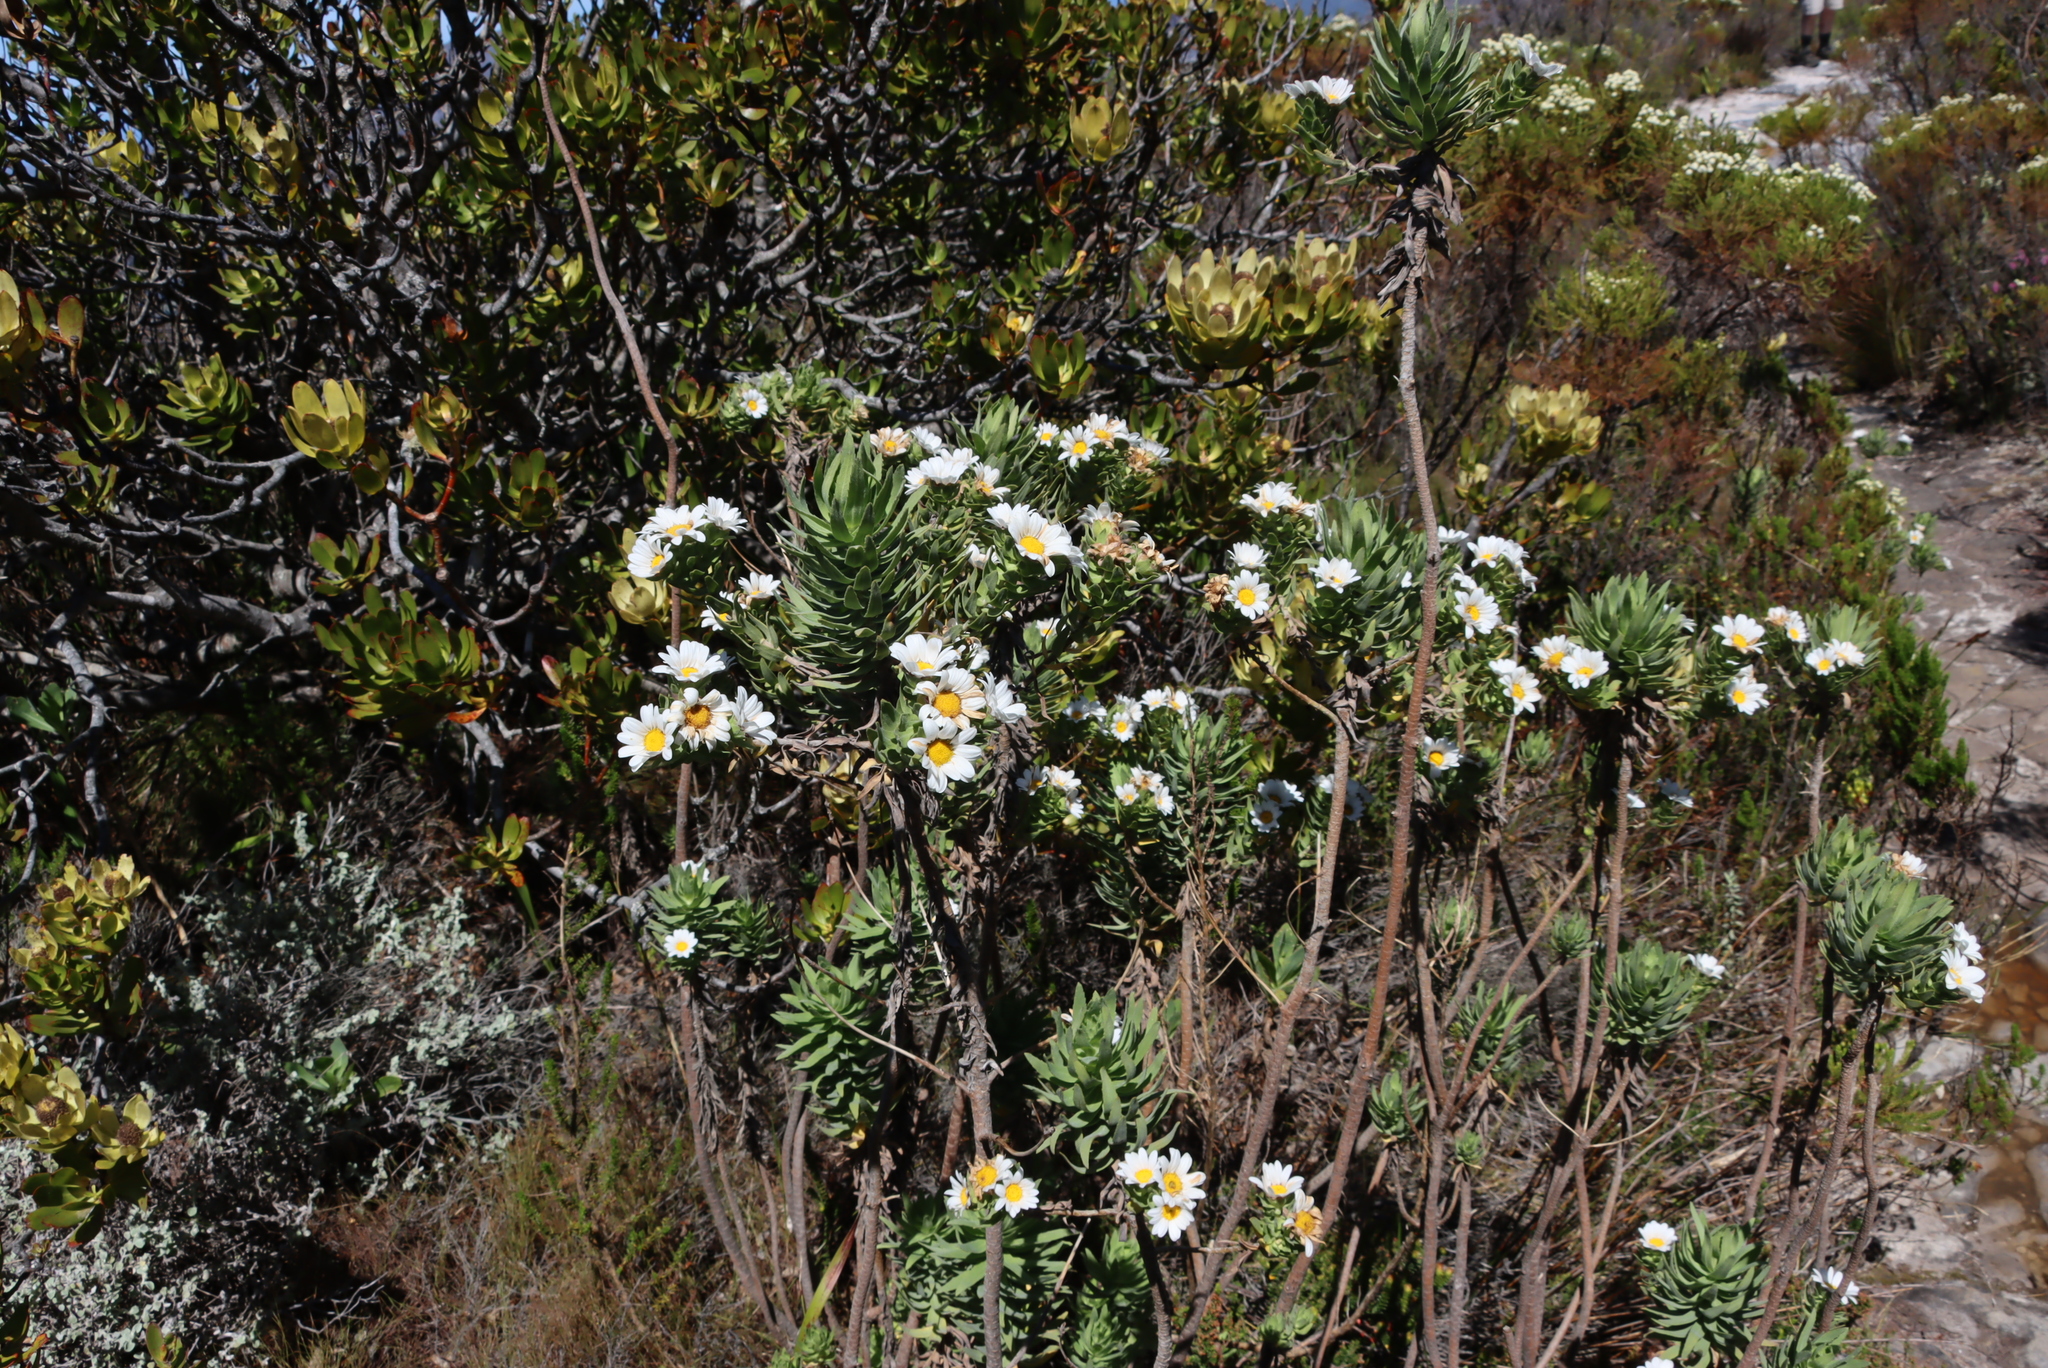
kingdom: Plantae
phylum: Tracheophyta
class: Magnoliopsida
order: Asterales
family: Asteraceae
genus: Osmitopsis
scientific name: Osmitopsis asteriscoides
